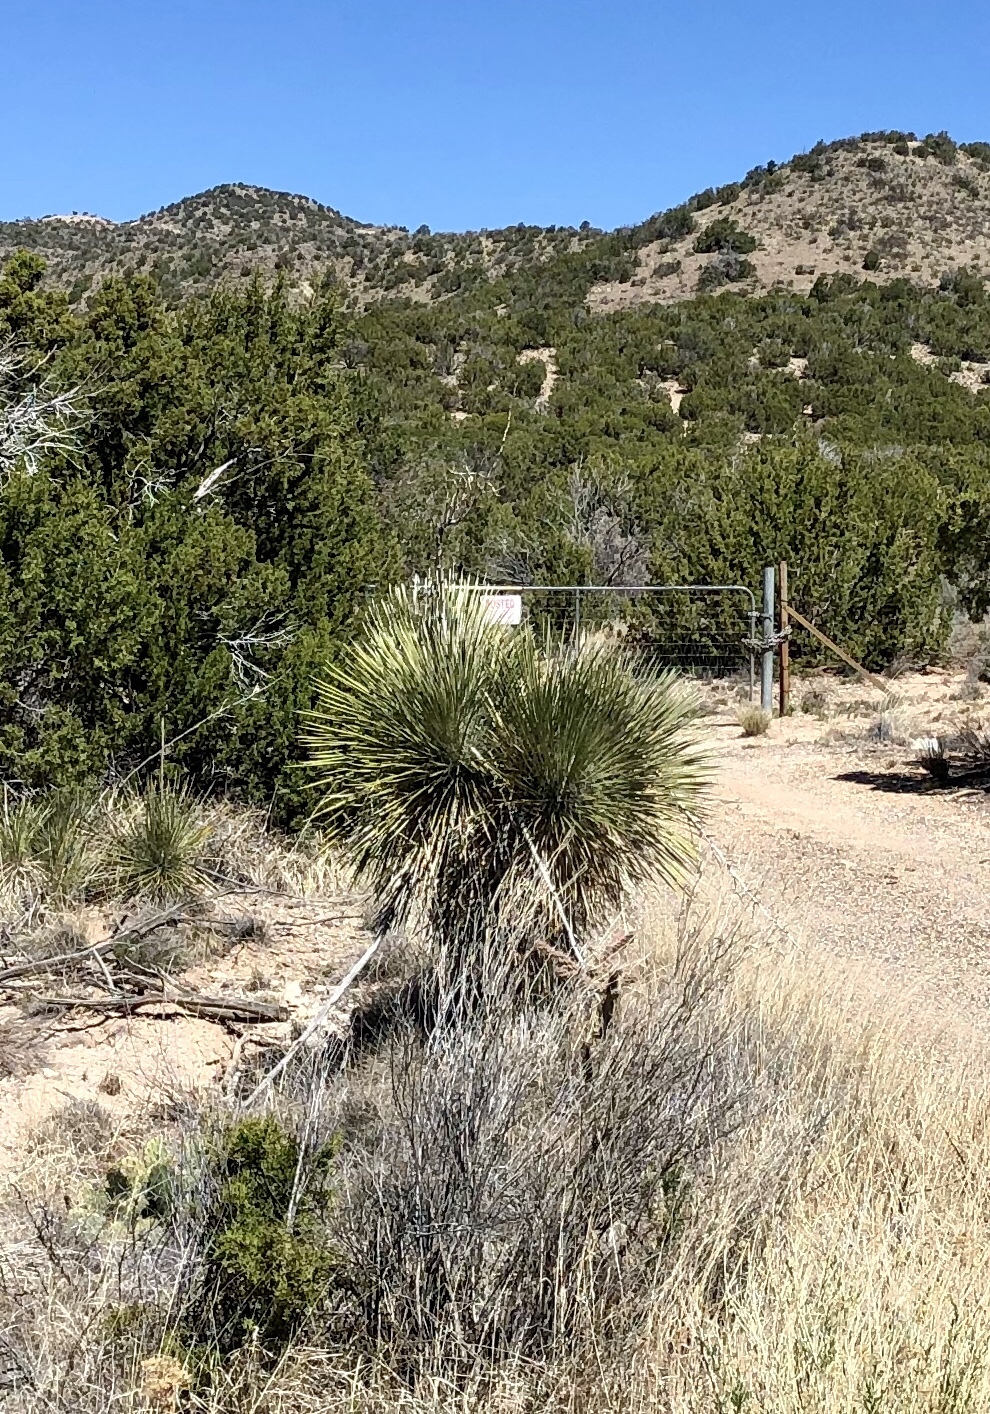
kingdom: Plantae
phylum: Tracheophyta
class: Liliopsida
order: Asparagales
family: Asparagaceae
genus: Yucca
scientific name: Yucca elata
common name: Palmella
